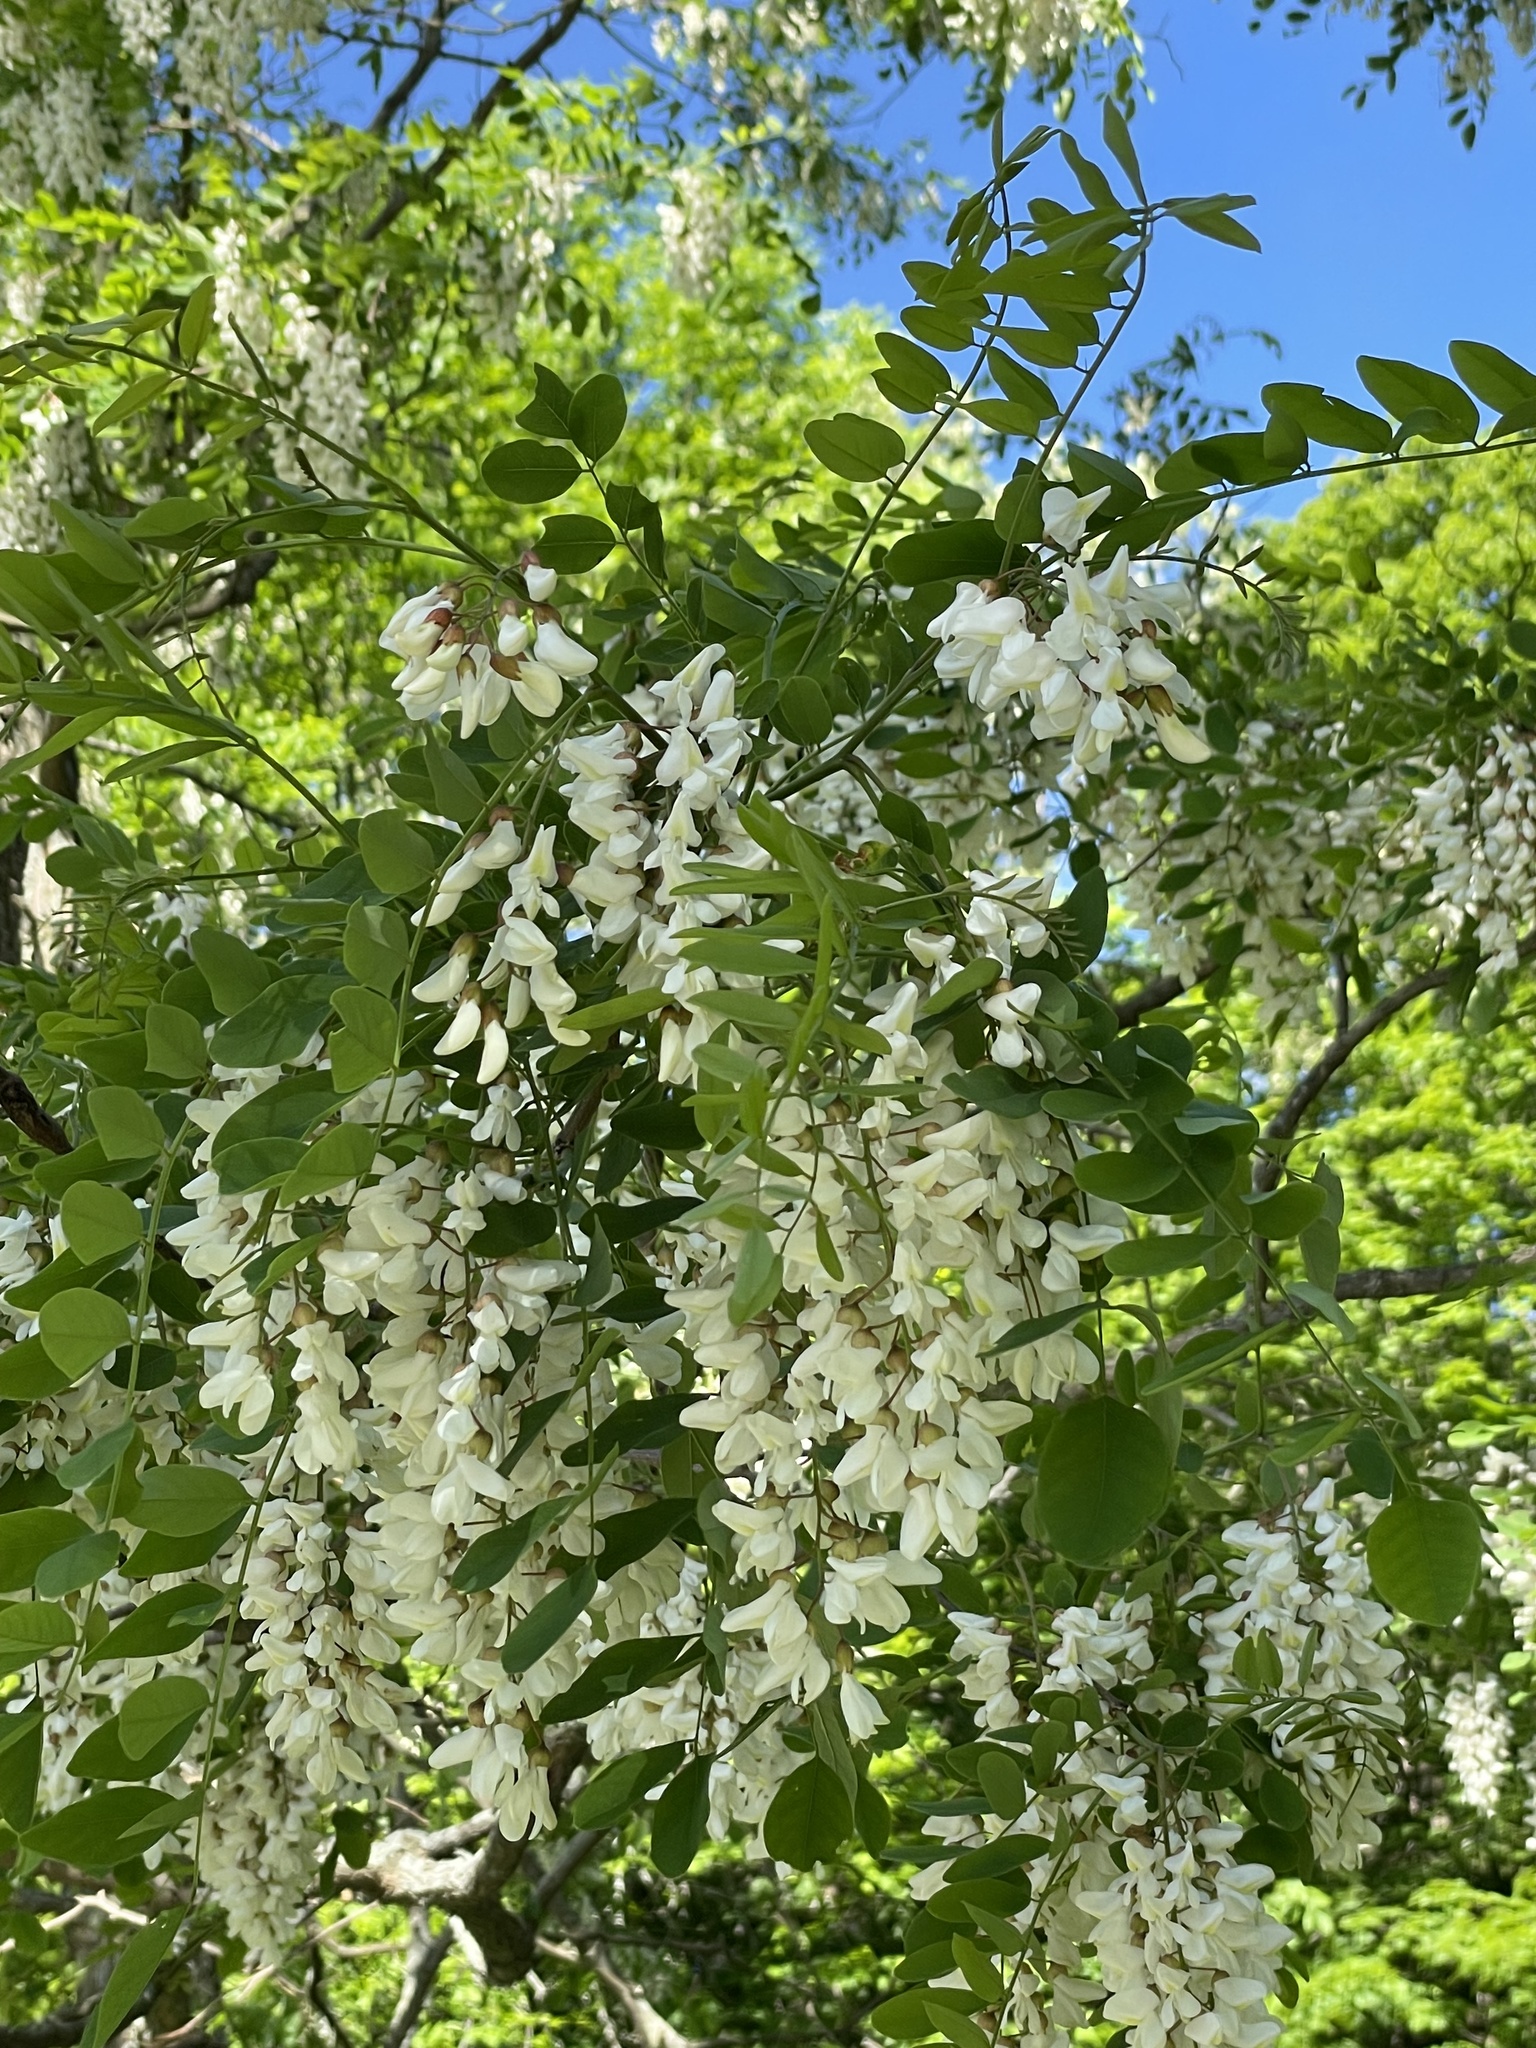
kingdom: Plantae
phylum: Tracheophyta
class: Magnoliopsida
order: Fabales
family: Fabaceae
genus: Robinia
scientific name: Robinia pseudoacacia
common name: Black locust
